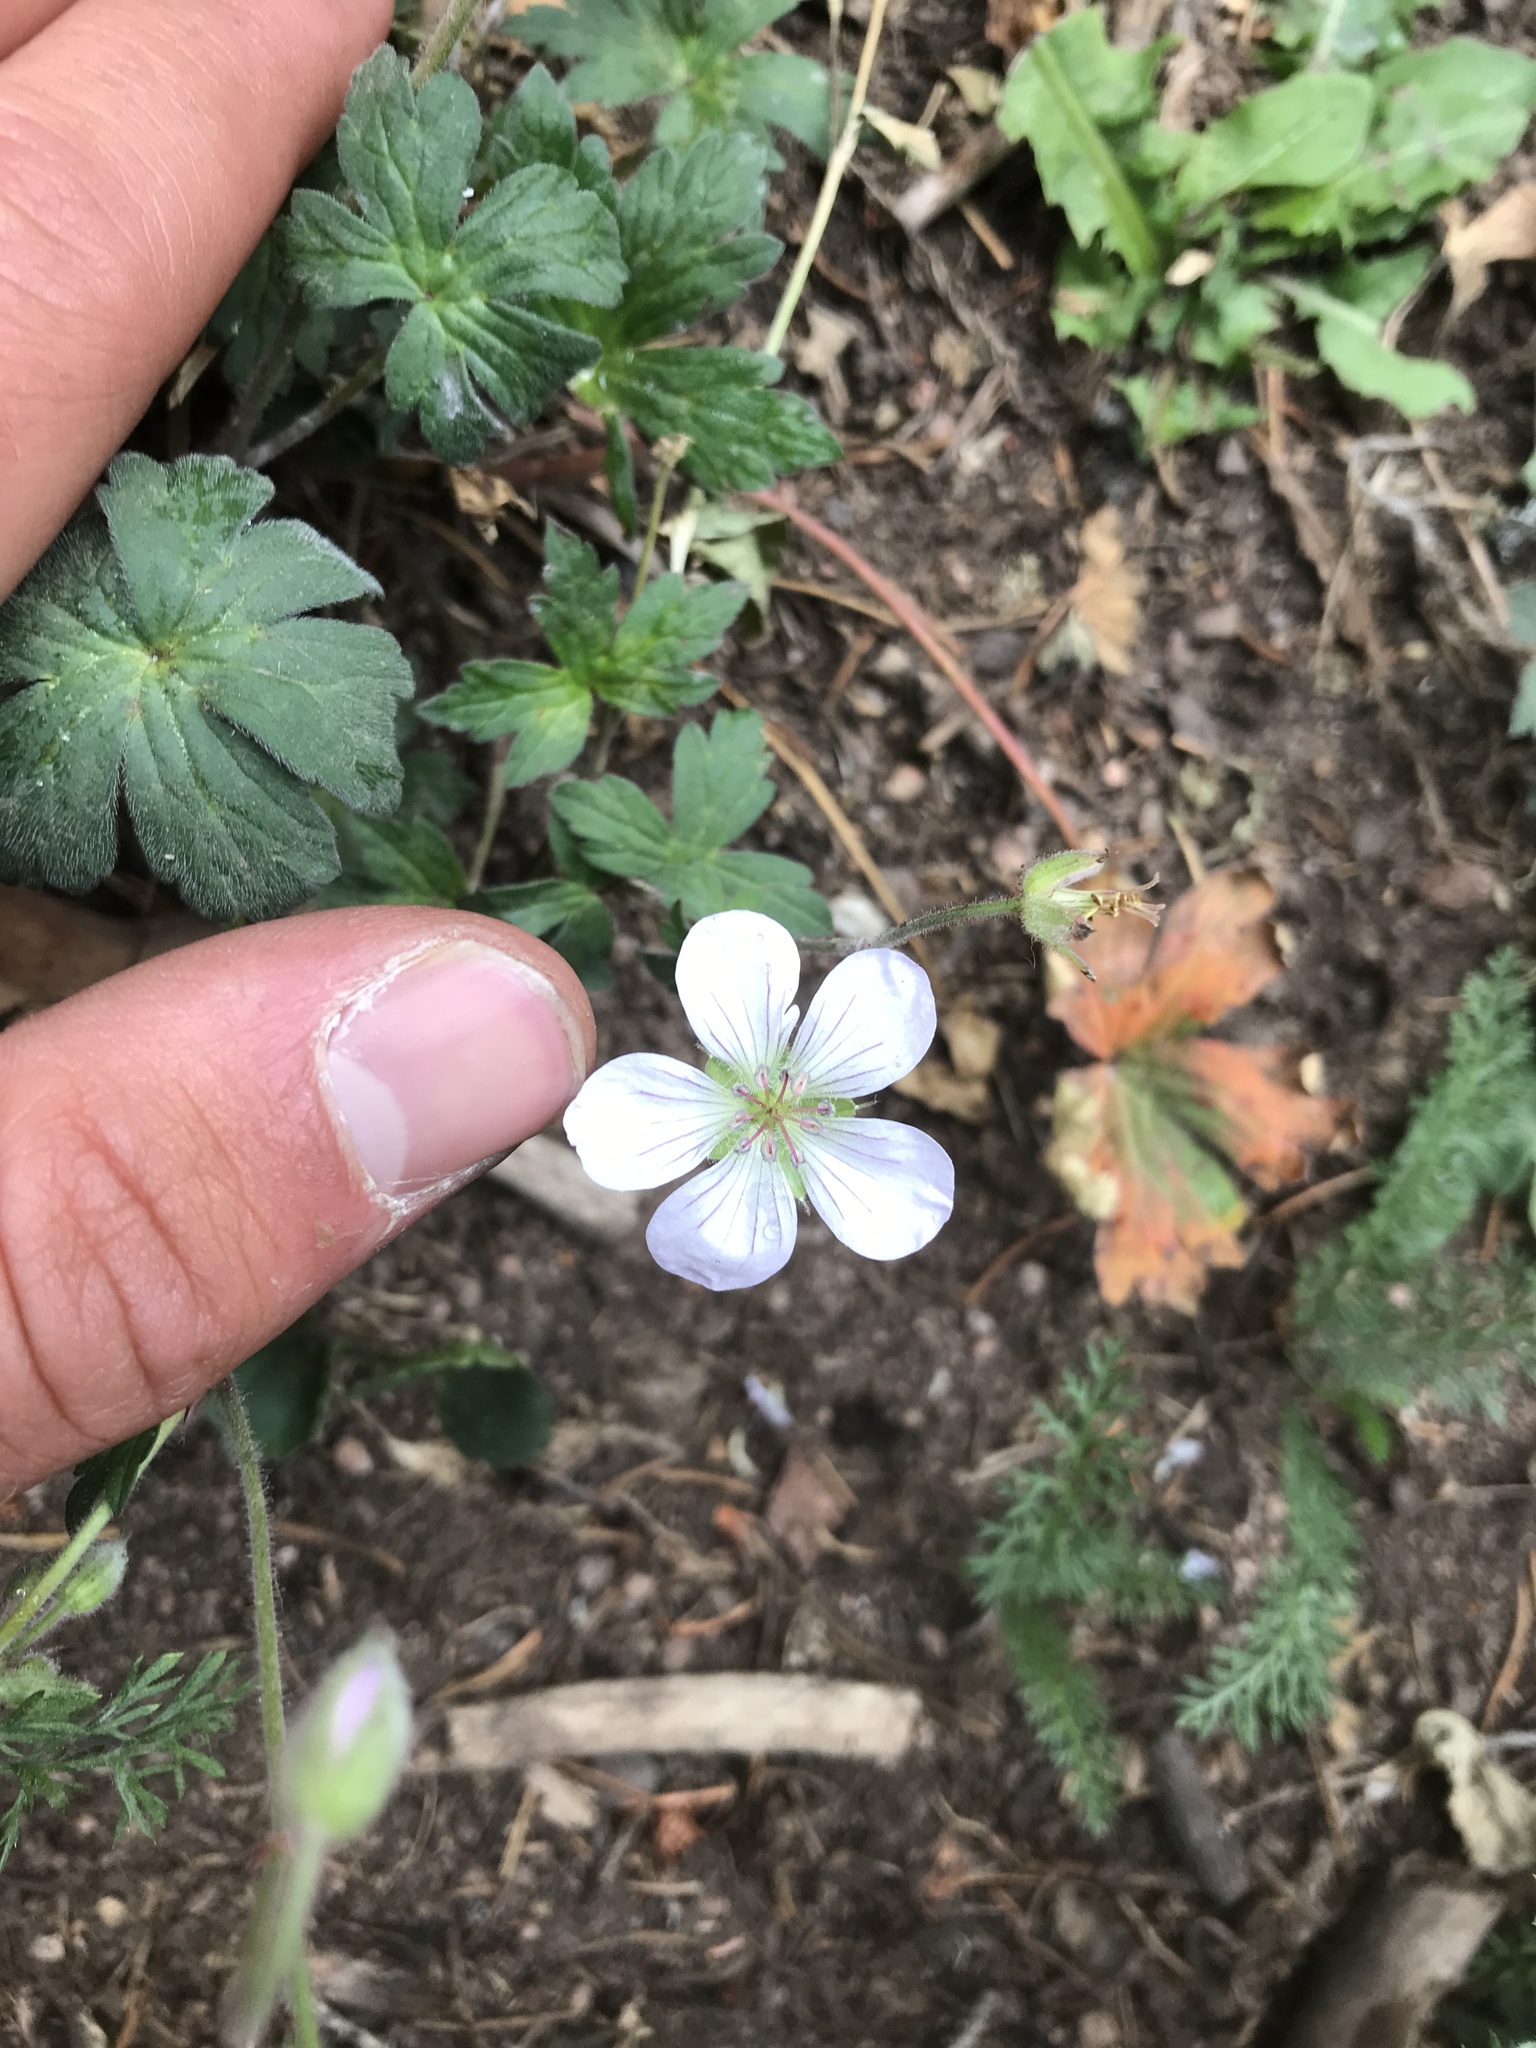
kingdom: Plantae
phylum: Tracheophyta
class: Magnoliopsida
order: Geraniales
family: Geraniaceae
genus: Geranium
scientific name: Geranium richardsonii
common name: Richardson's crane's-bill
